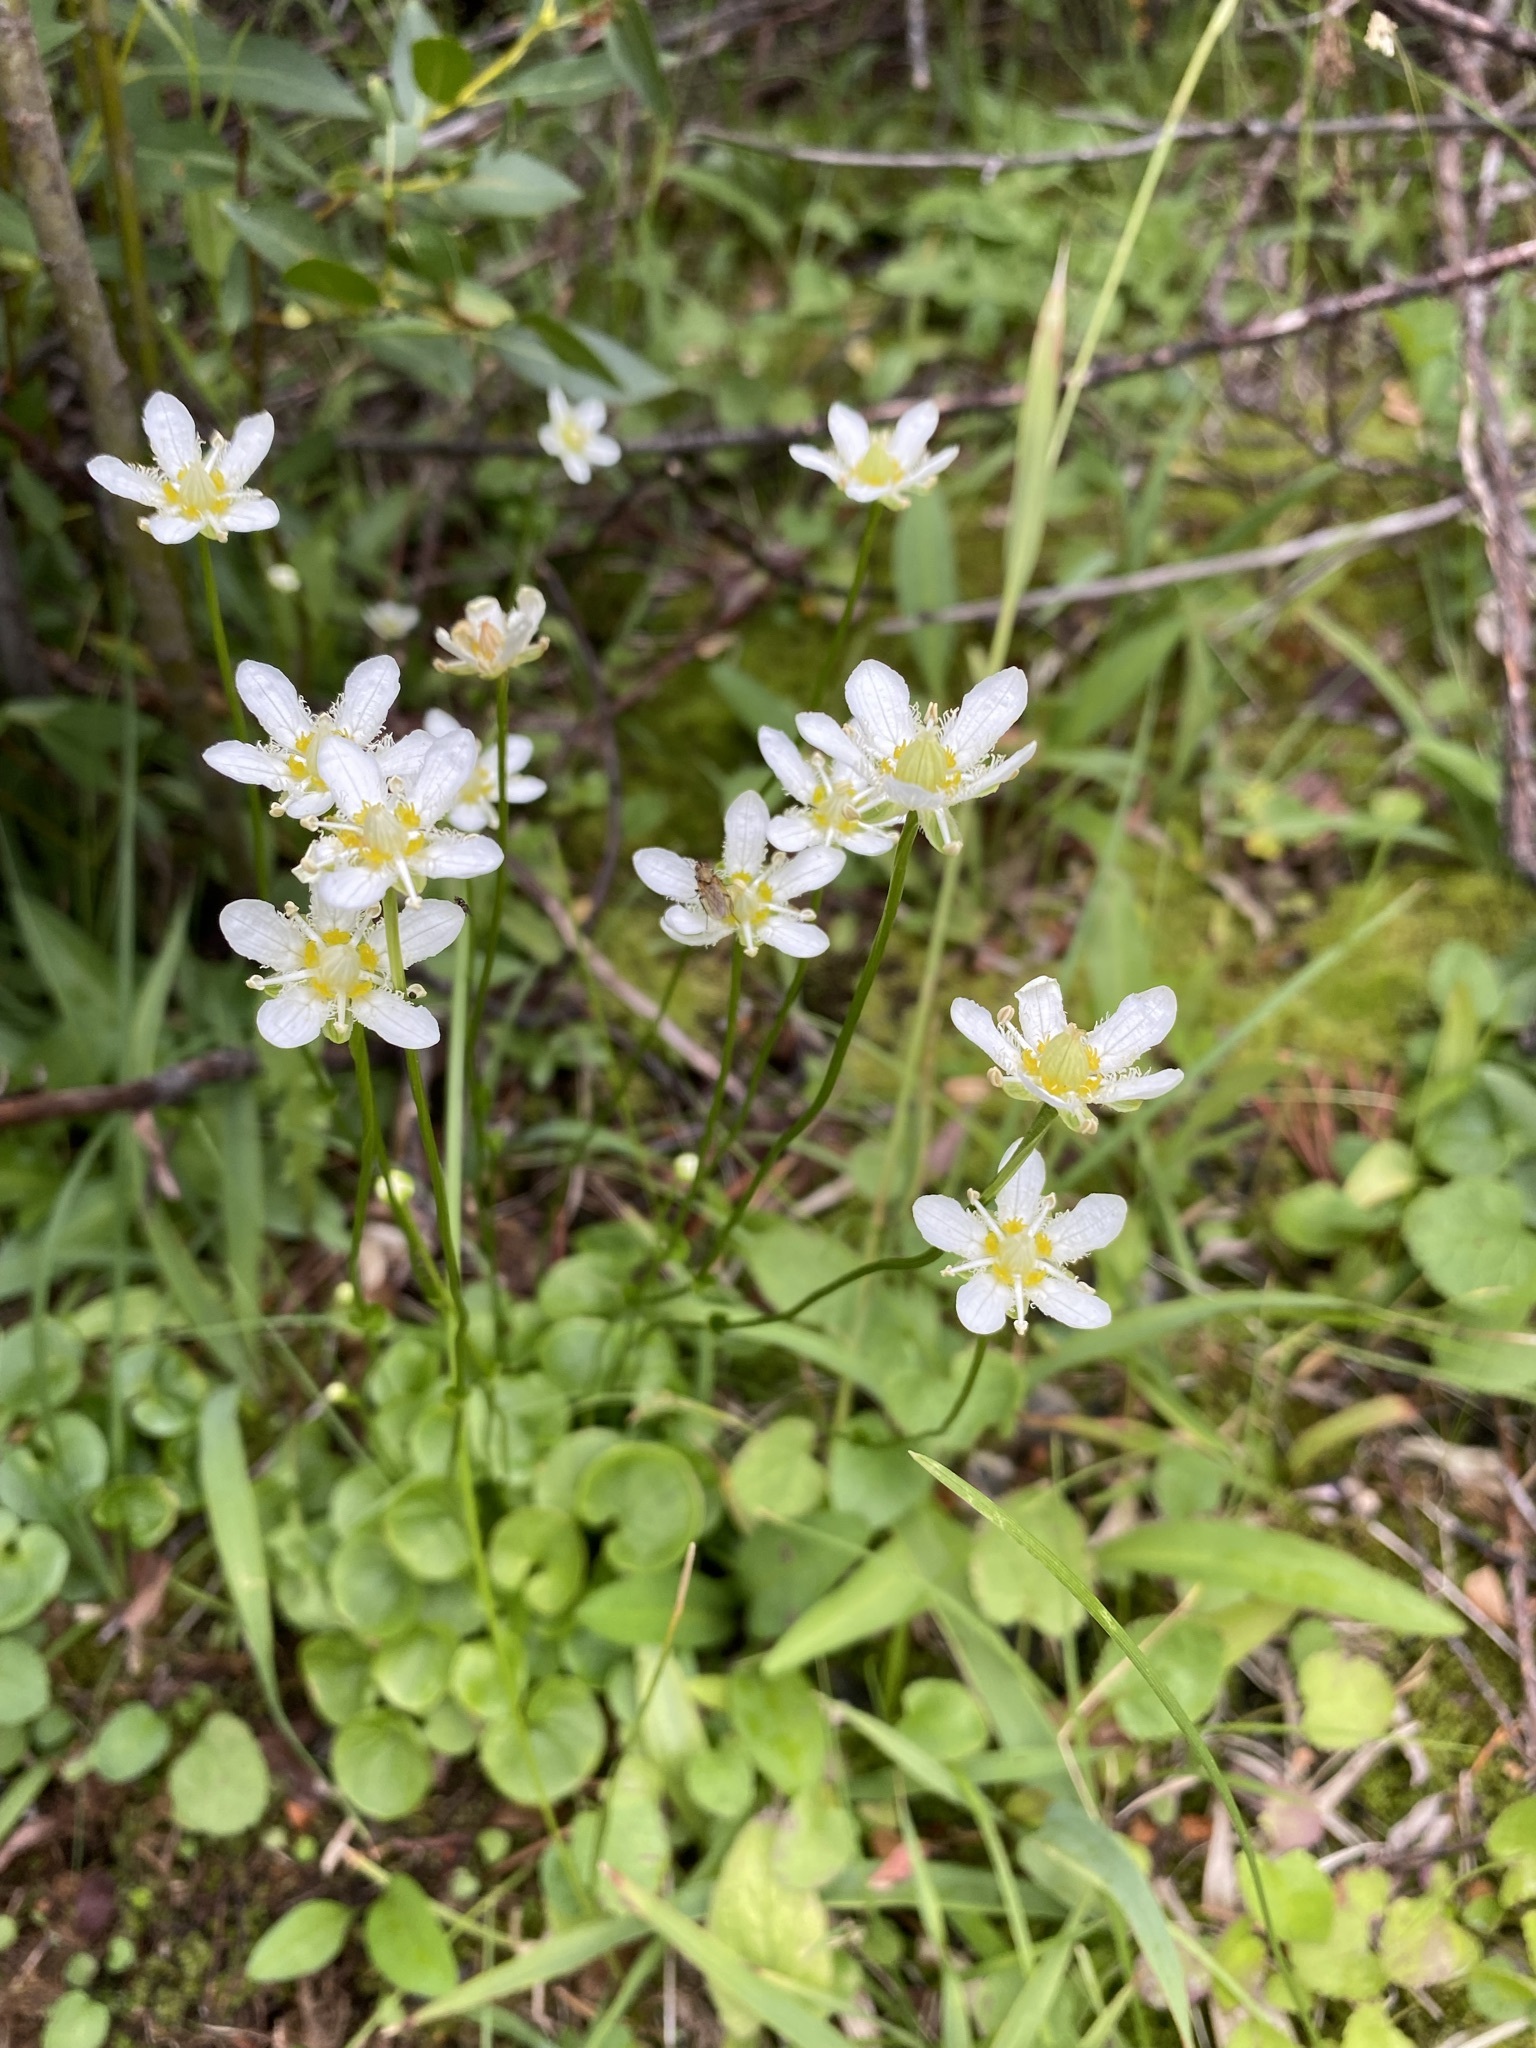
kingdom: Plantae
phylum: Tracheophyta
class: Magnoliopsida
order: Celastrales
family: Parnassiaceae
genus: Parnassia
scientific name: Parnassia fimbriata
